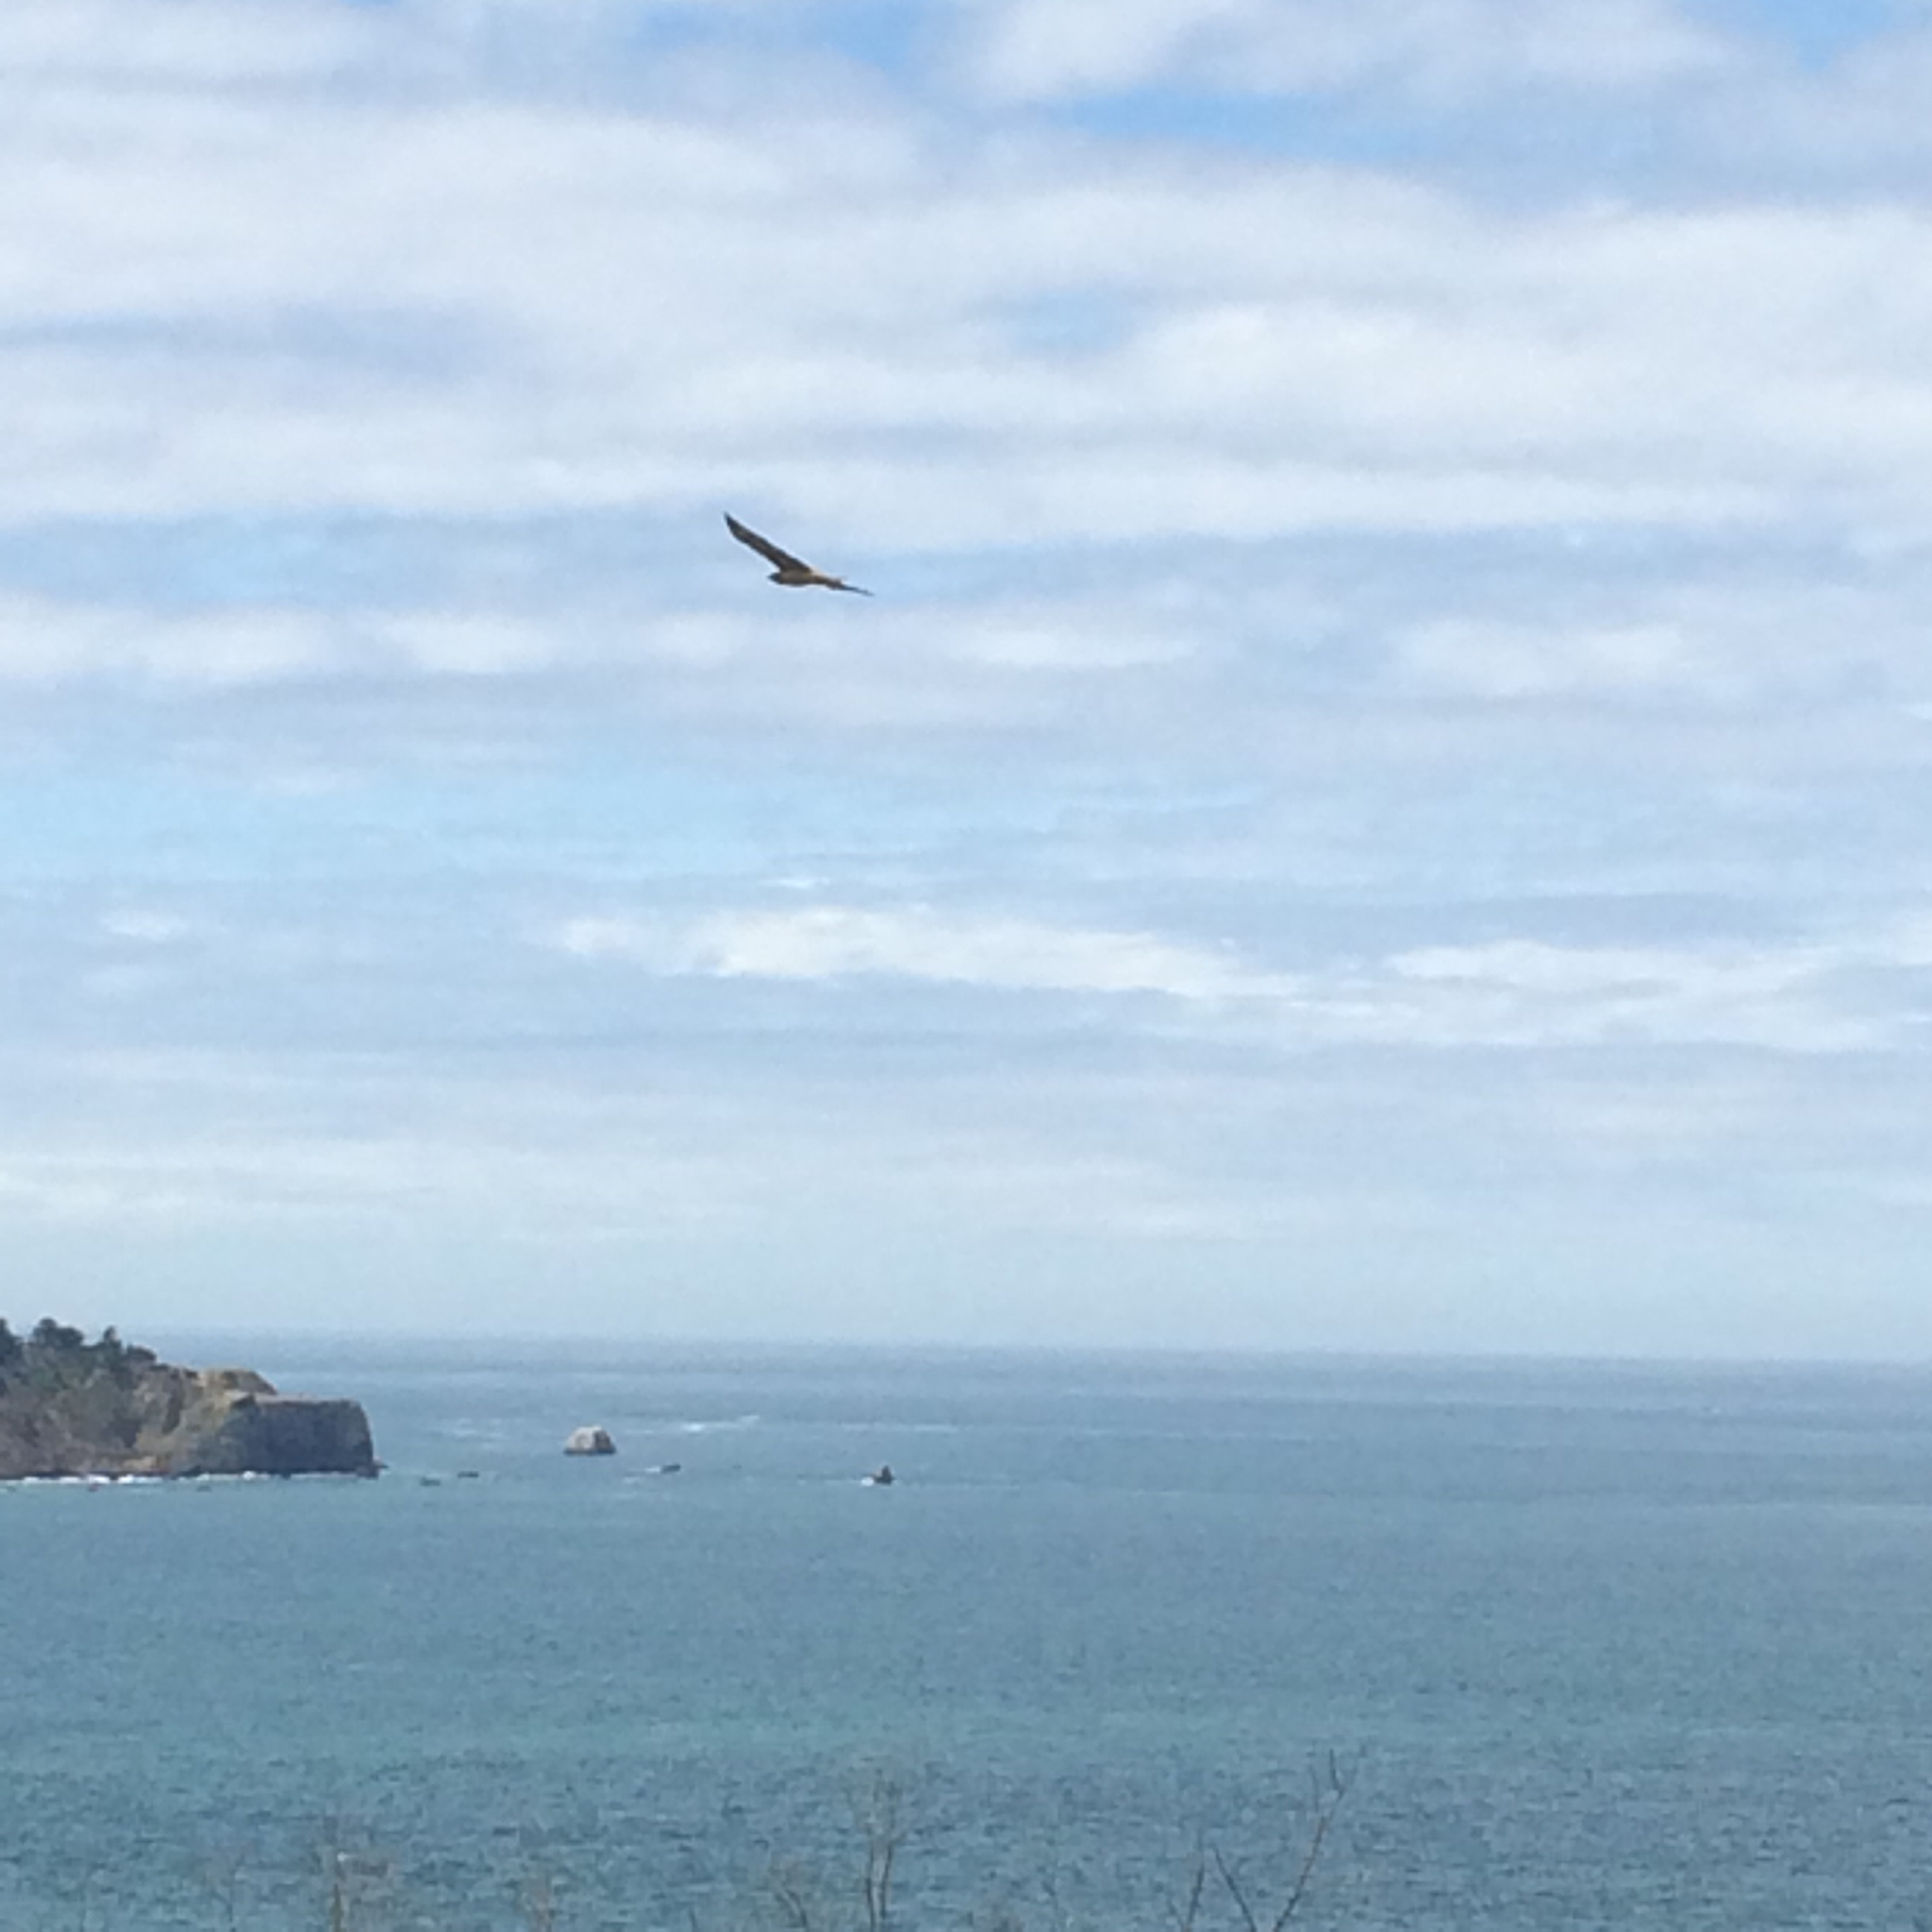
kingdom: Animalia
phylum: Chordata
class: Aves
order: Accipitriformes
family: Accipitridae
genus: Buteo
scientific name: Buteo jamaicensis
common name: Red-tailed hawk
